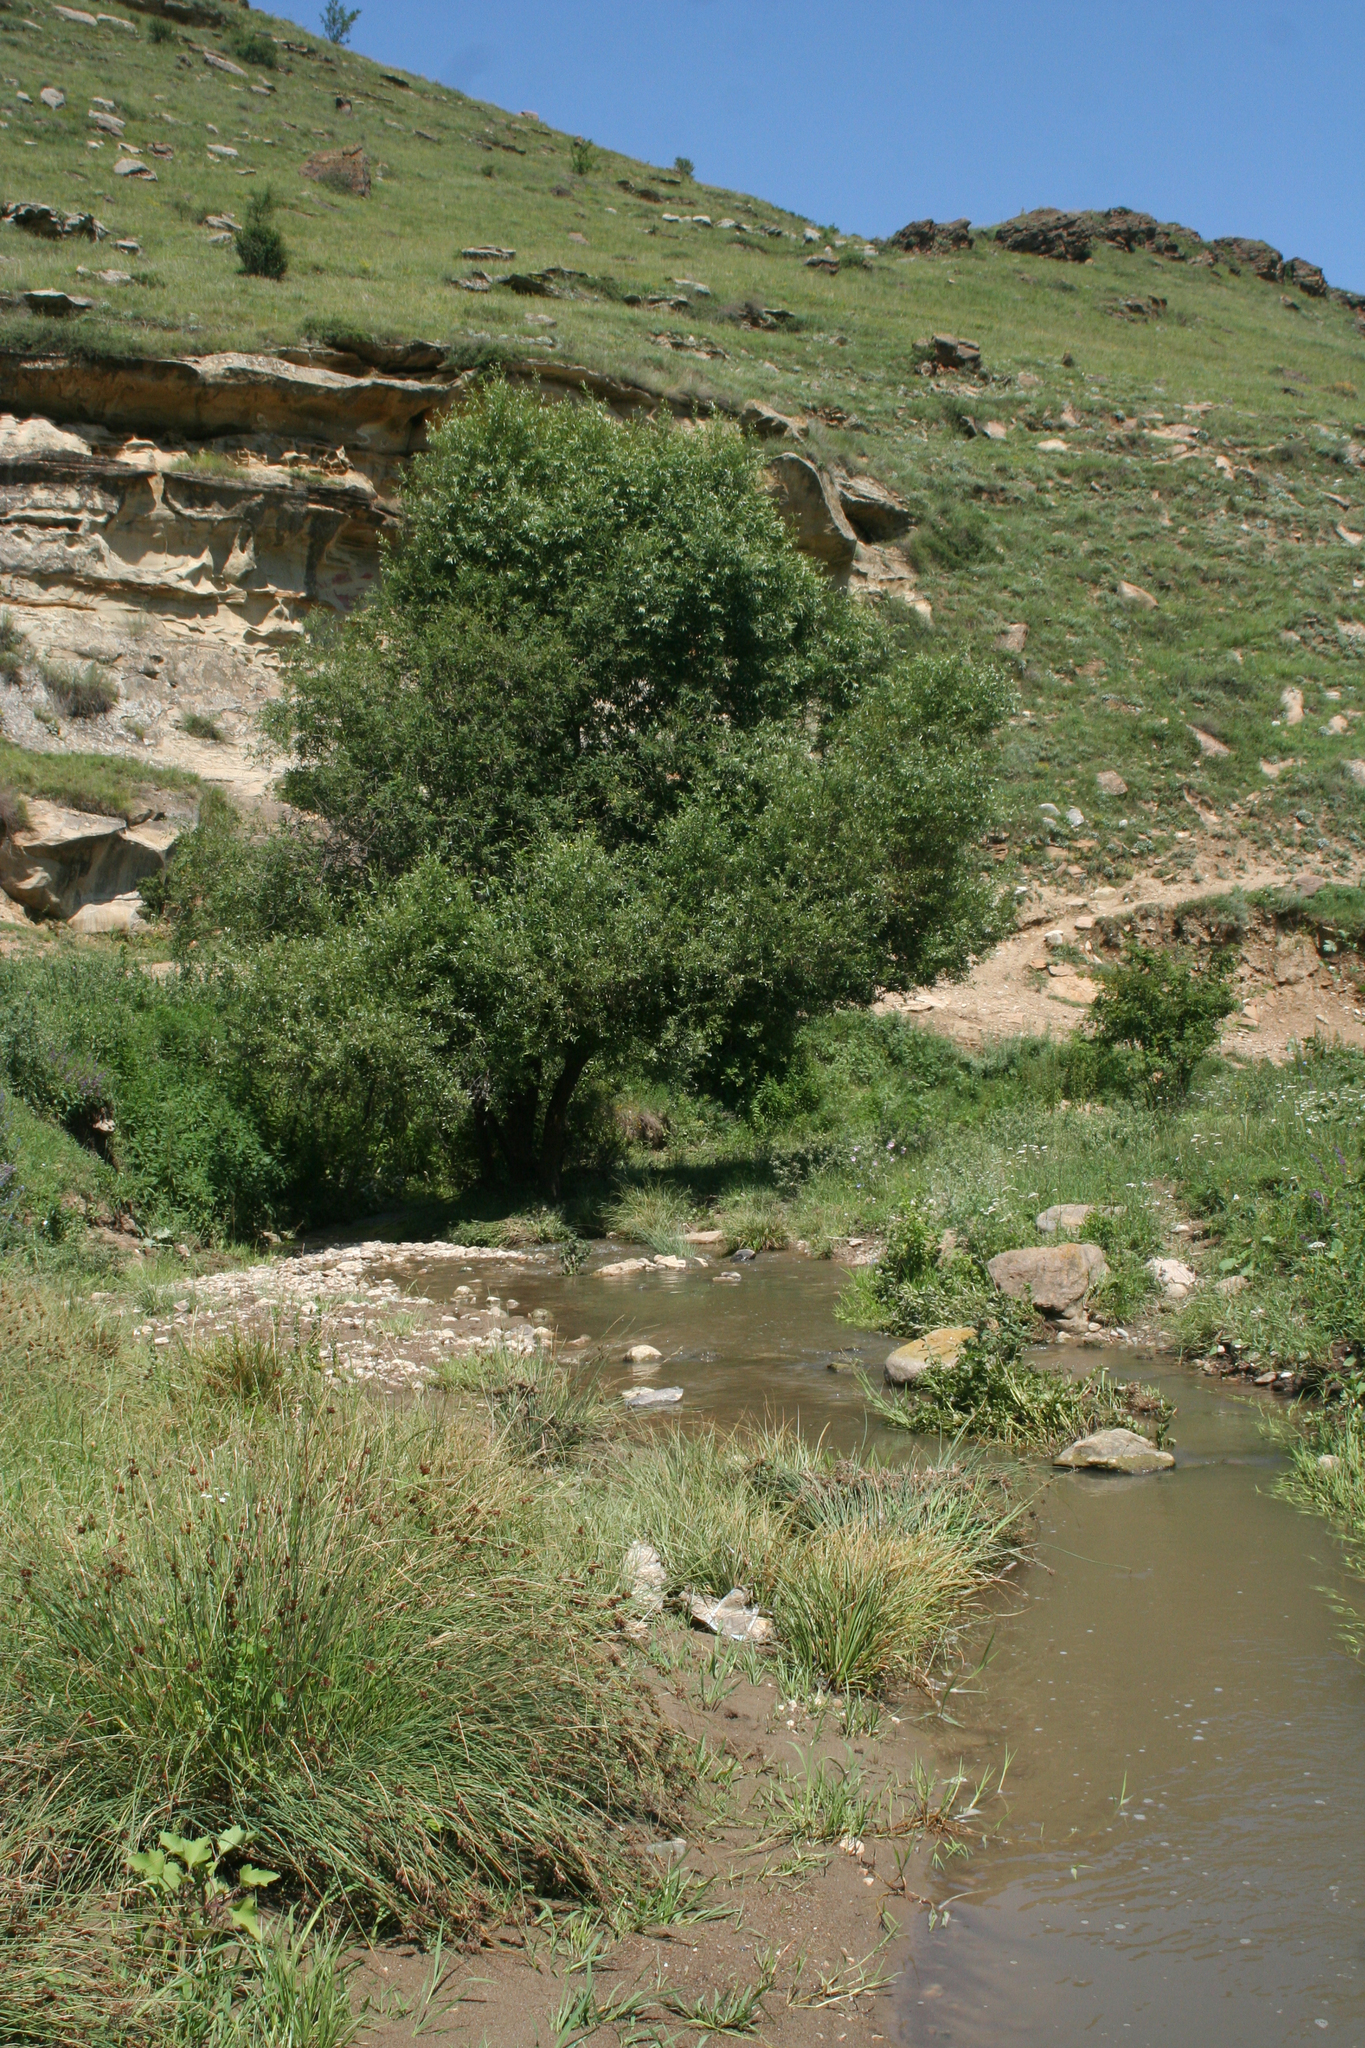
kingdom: Plantae
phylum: Tracheophyta
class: Liliopsida
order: Poales
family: Juncaceae
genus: Juncus
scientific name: Juncus inflexus
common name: Hard rush
